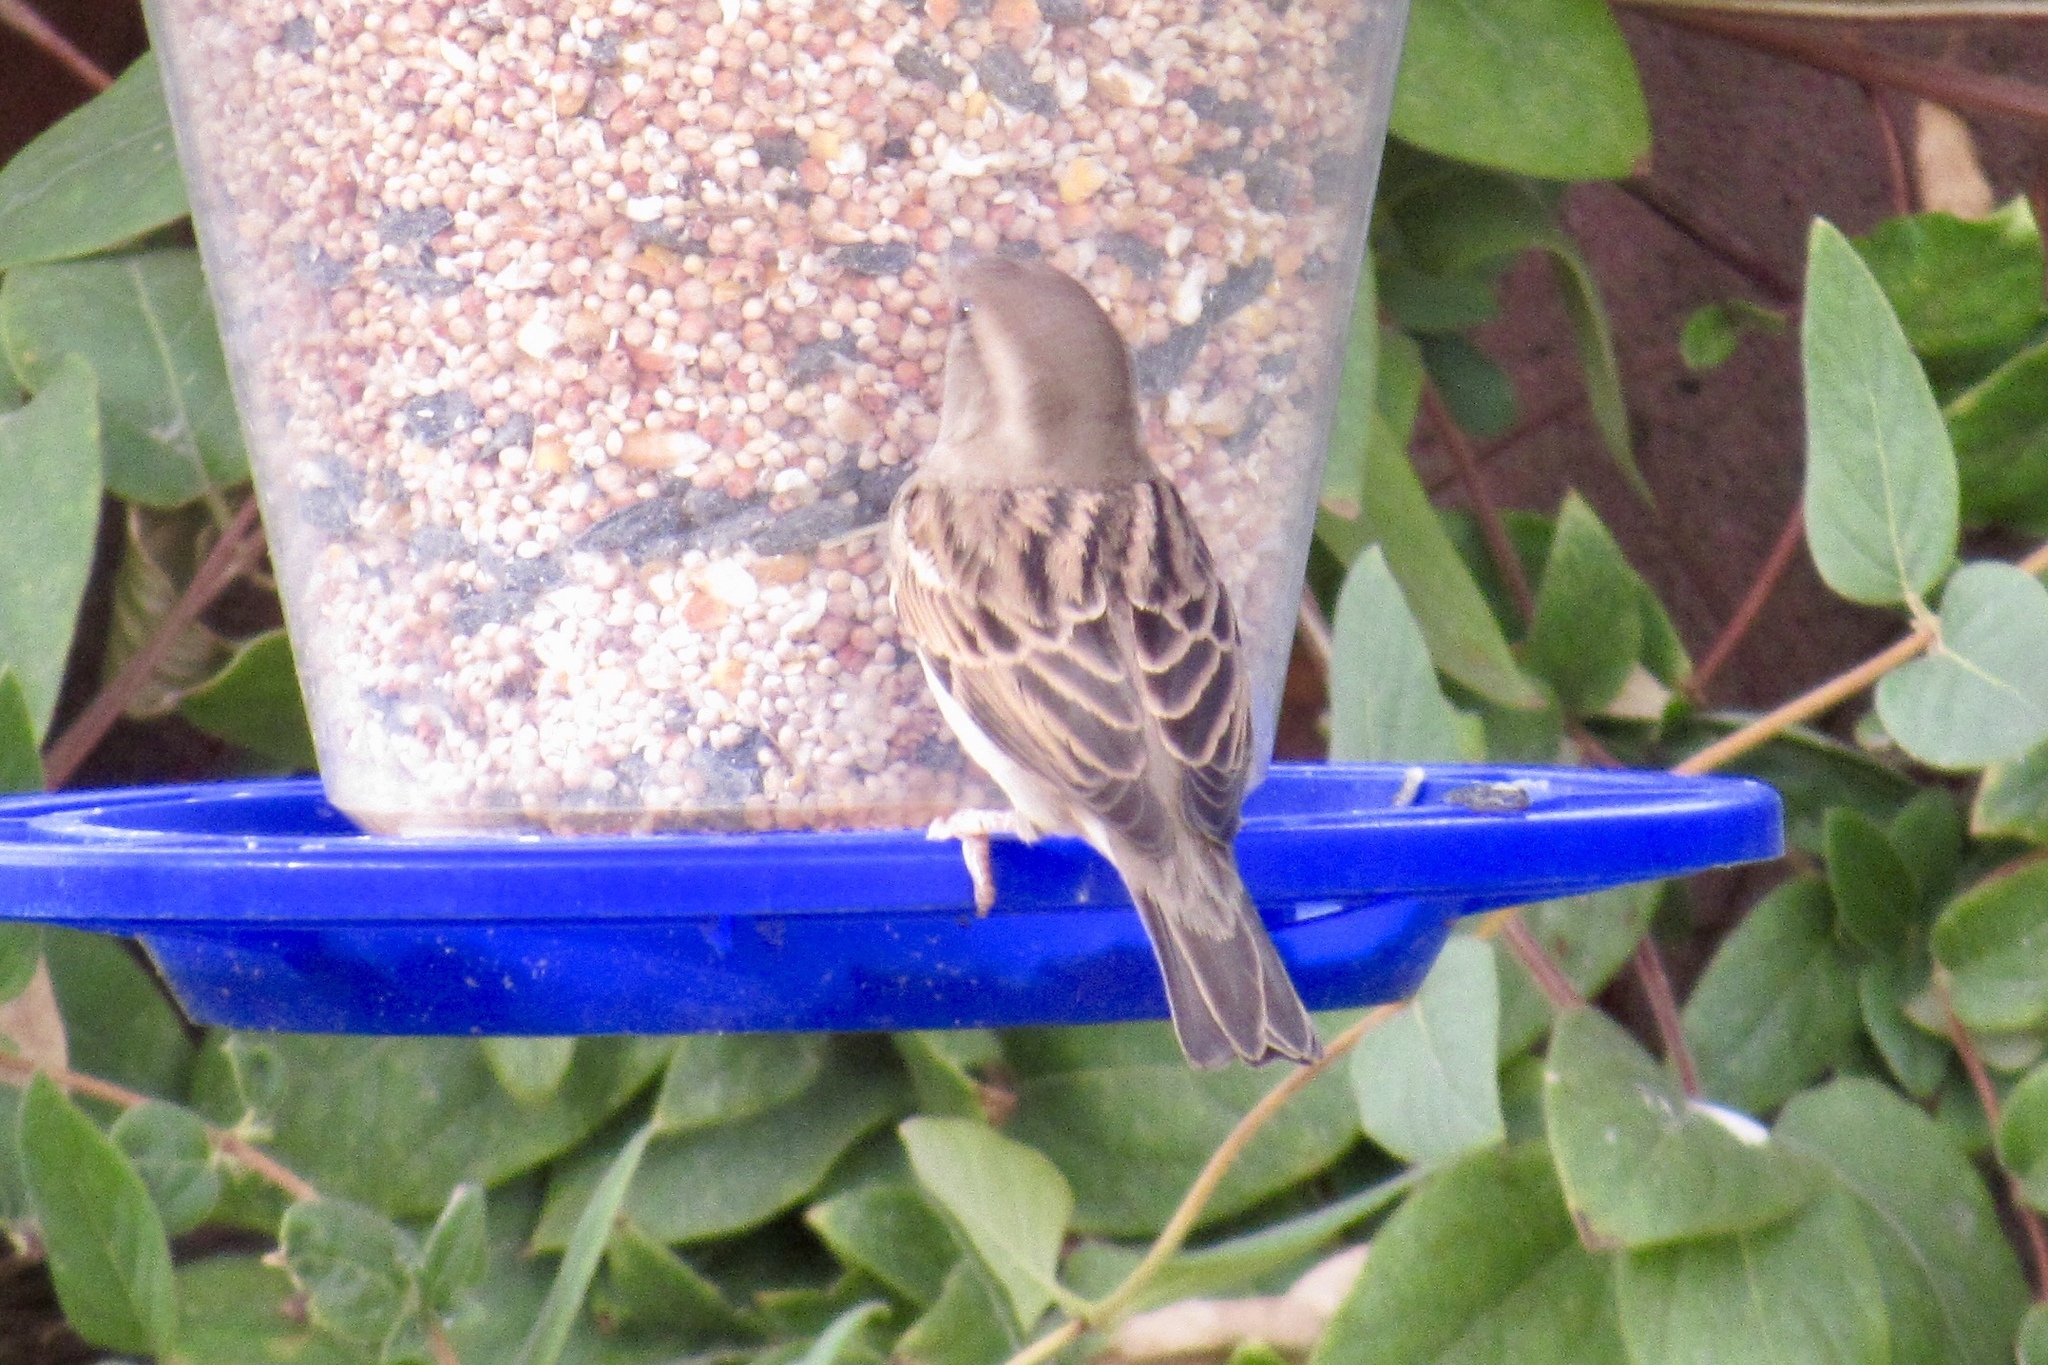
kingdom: Animalia
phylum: Chordata
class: Aves
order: Passeriformes
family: Passeridae
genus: Passer
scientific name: Passer domesticus
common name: House sparrow
